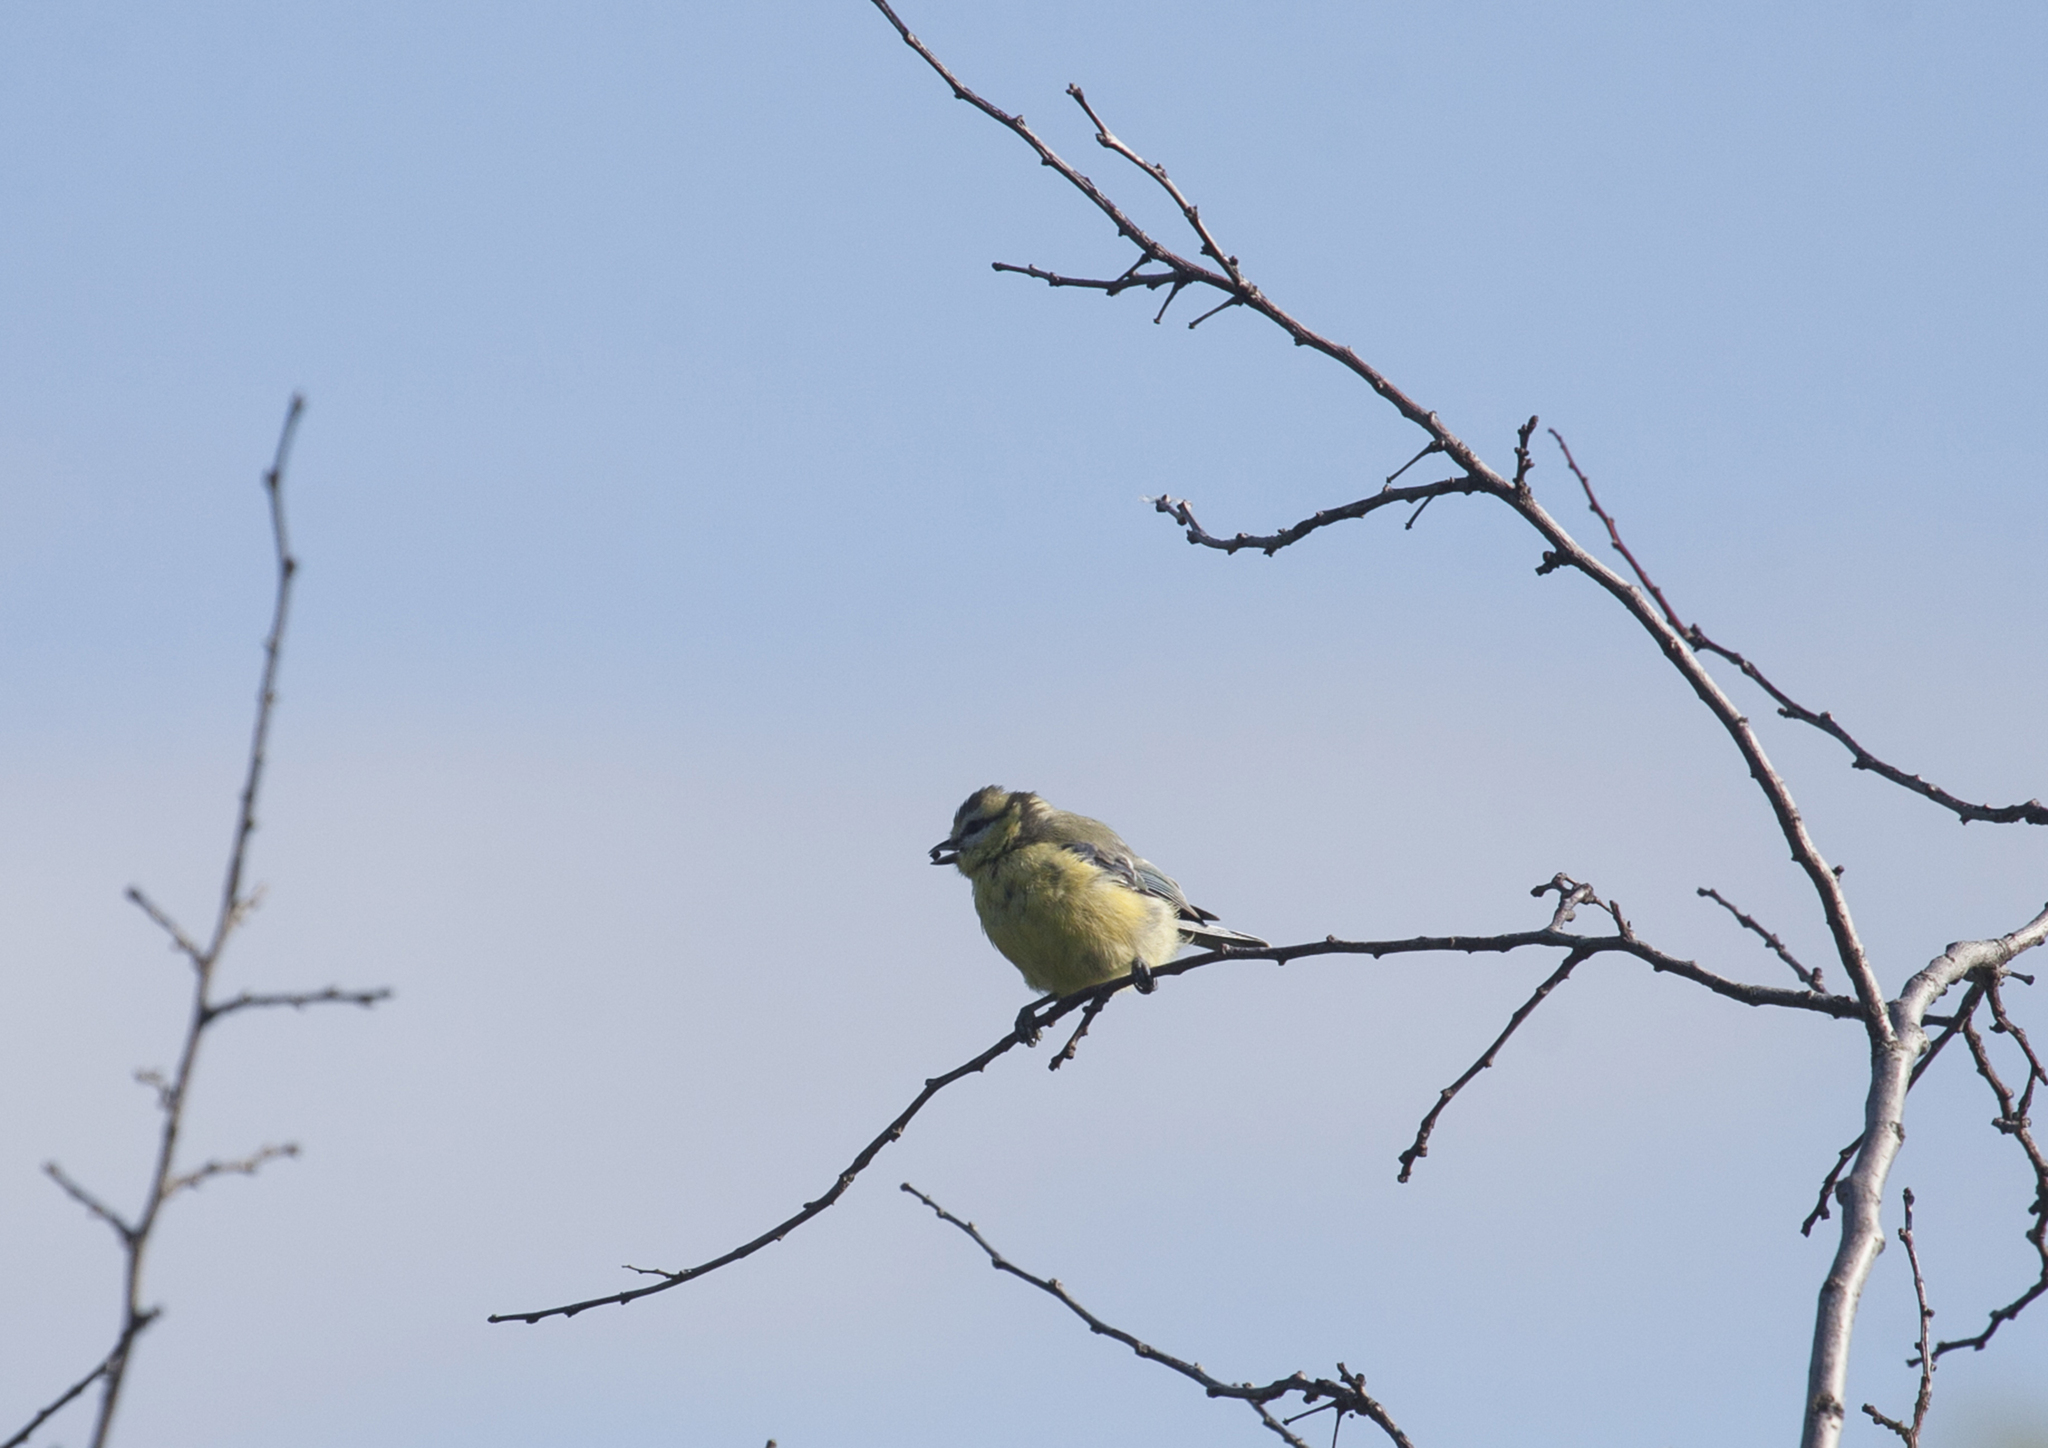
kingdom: Animalia
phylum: Chordata
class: Aves
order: Passeriformes
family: Paridae
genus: Cyanistes
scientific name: Cyanistes caeruleus
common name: Eurasian blue tit
